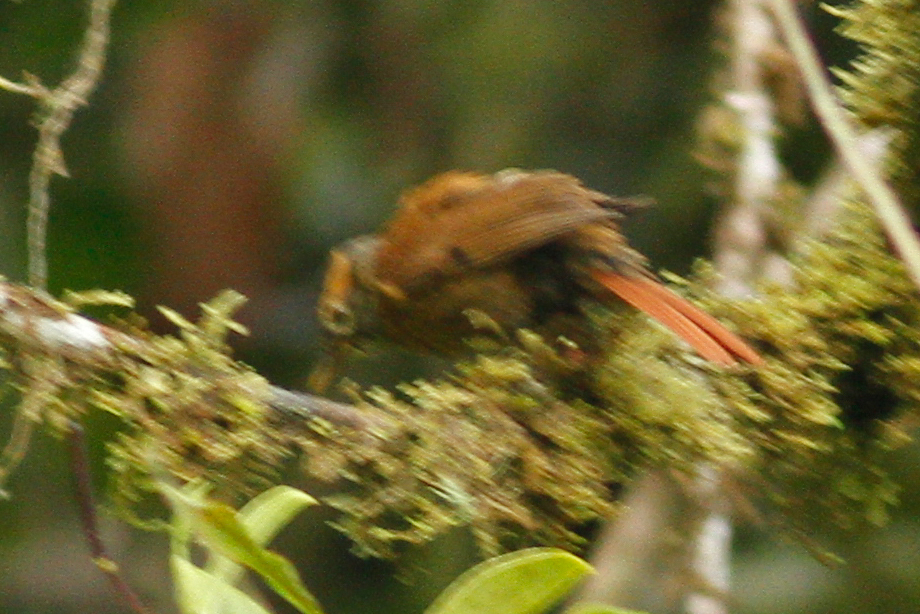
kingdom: Animalia
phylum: Chordata
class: Aves
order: Passeriformes
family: Furnariidae
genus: Anabacerthia
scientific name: Anabacerthia variegaticeps
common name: Scaly-throated foliage-gleaner
